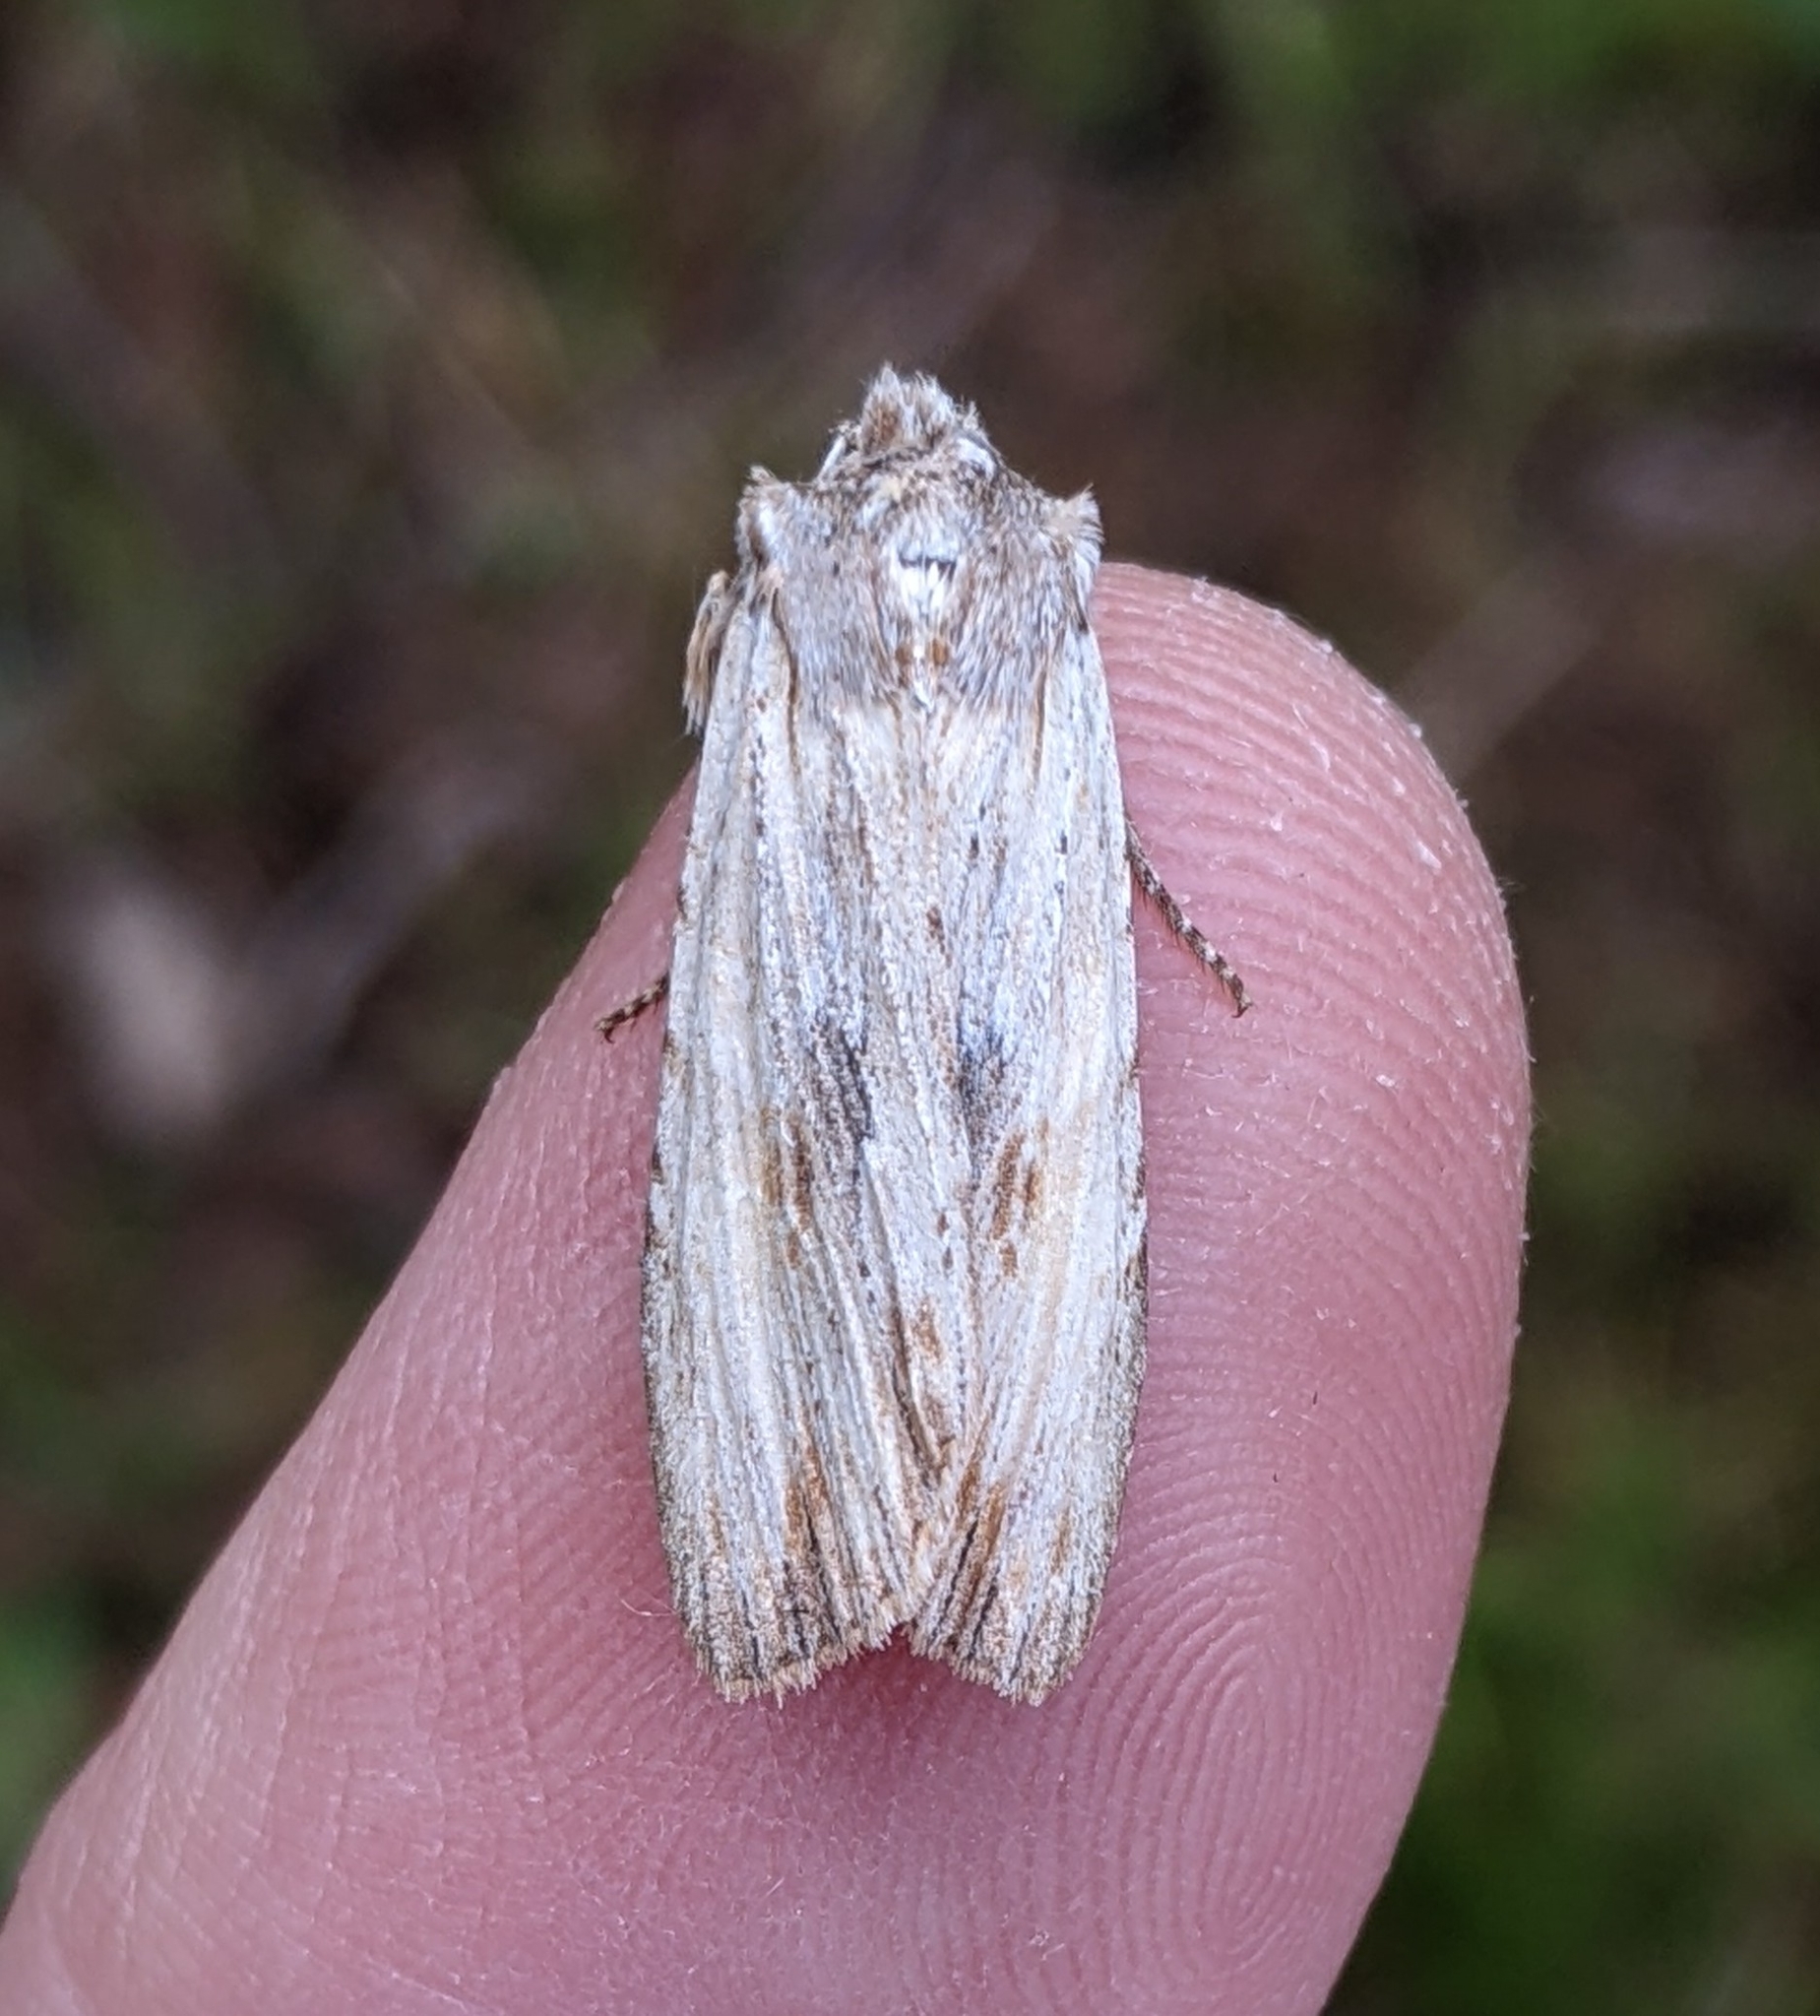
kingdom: Animalia
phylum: Arthropoda
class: Insecta
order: Lepidoptera
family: Noctuidae
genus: Lithophane
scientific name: Lithophane amanda
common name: Amanda's pinion moth
